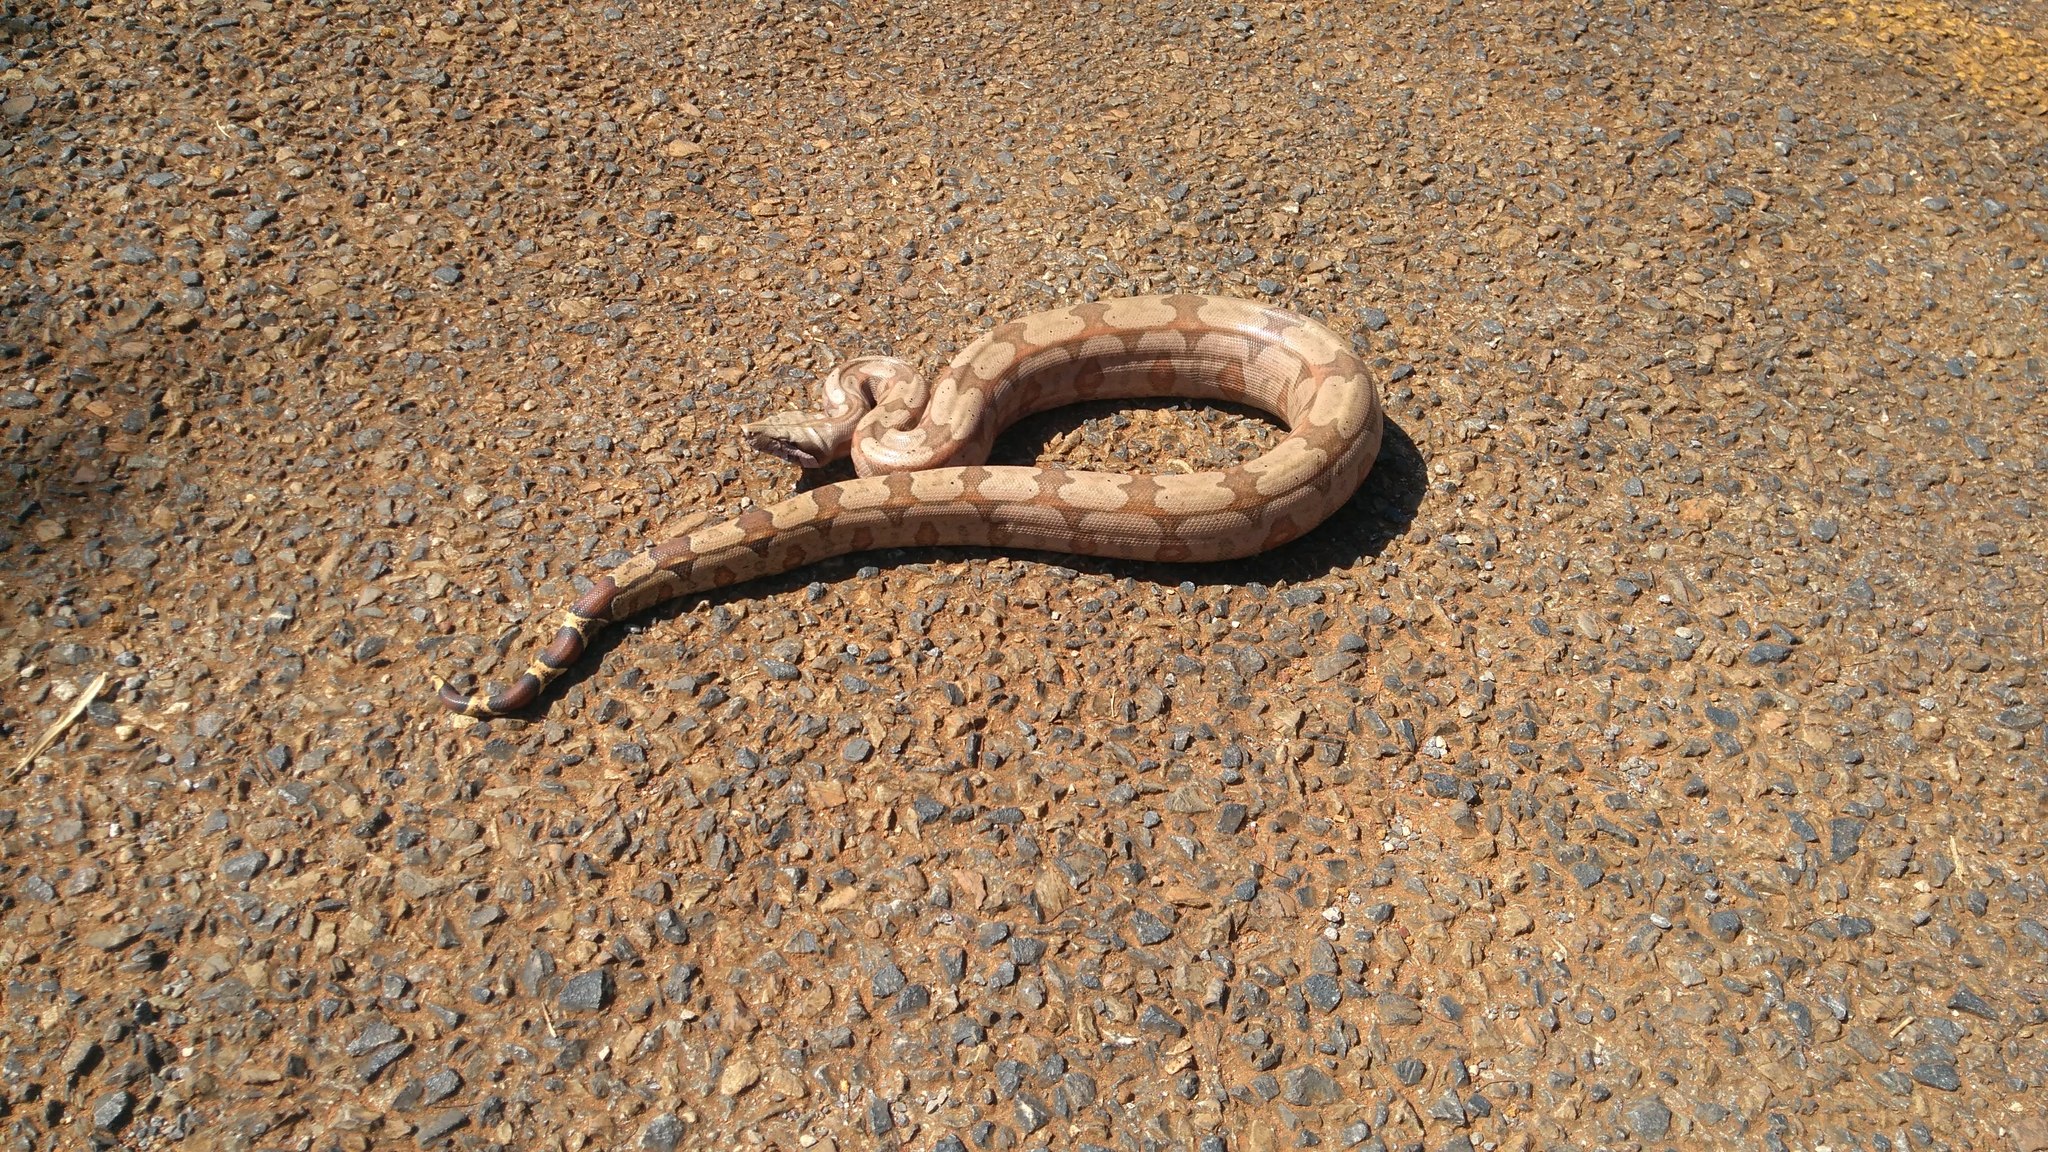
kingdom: Animalia
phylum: Chordata
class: Squamata
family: Boidae
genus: Boa
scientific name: Boa constrictor
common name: Boa constrictor
